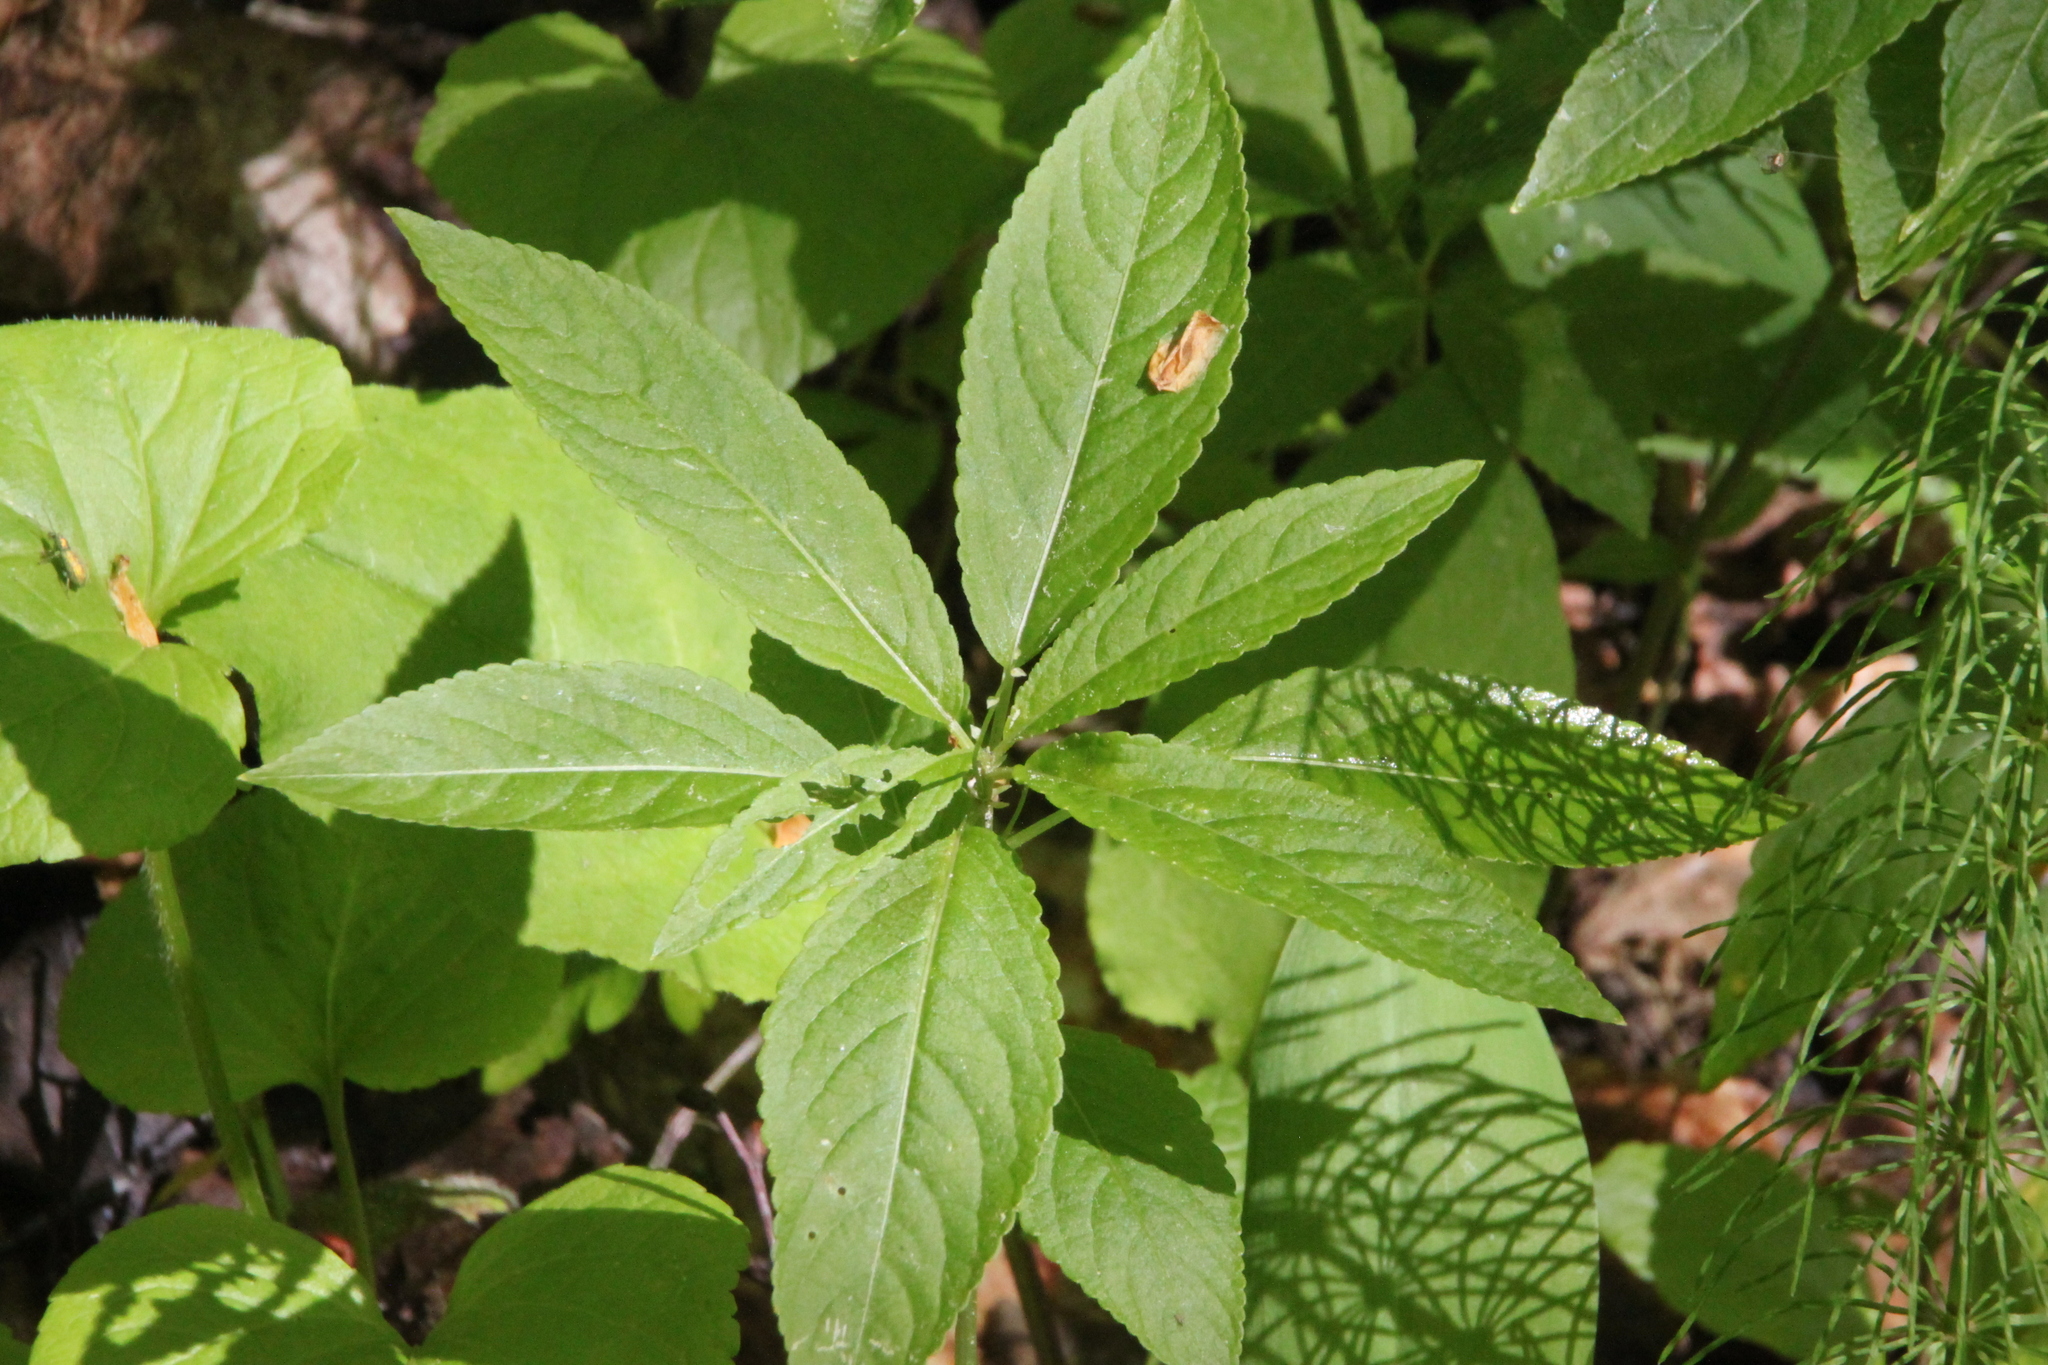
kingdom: Plantae
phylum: Tracheophyta
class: Magnoliopsida
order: Malpighiales
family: Euphorbiaceae
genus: Mercurialis
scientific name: Mercurialis perennis
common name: Dog mercury
